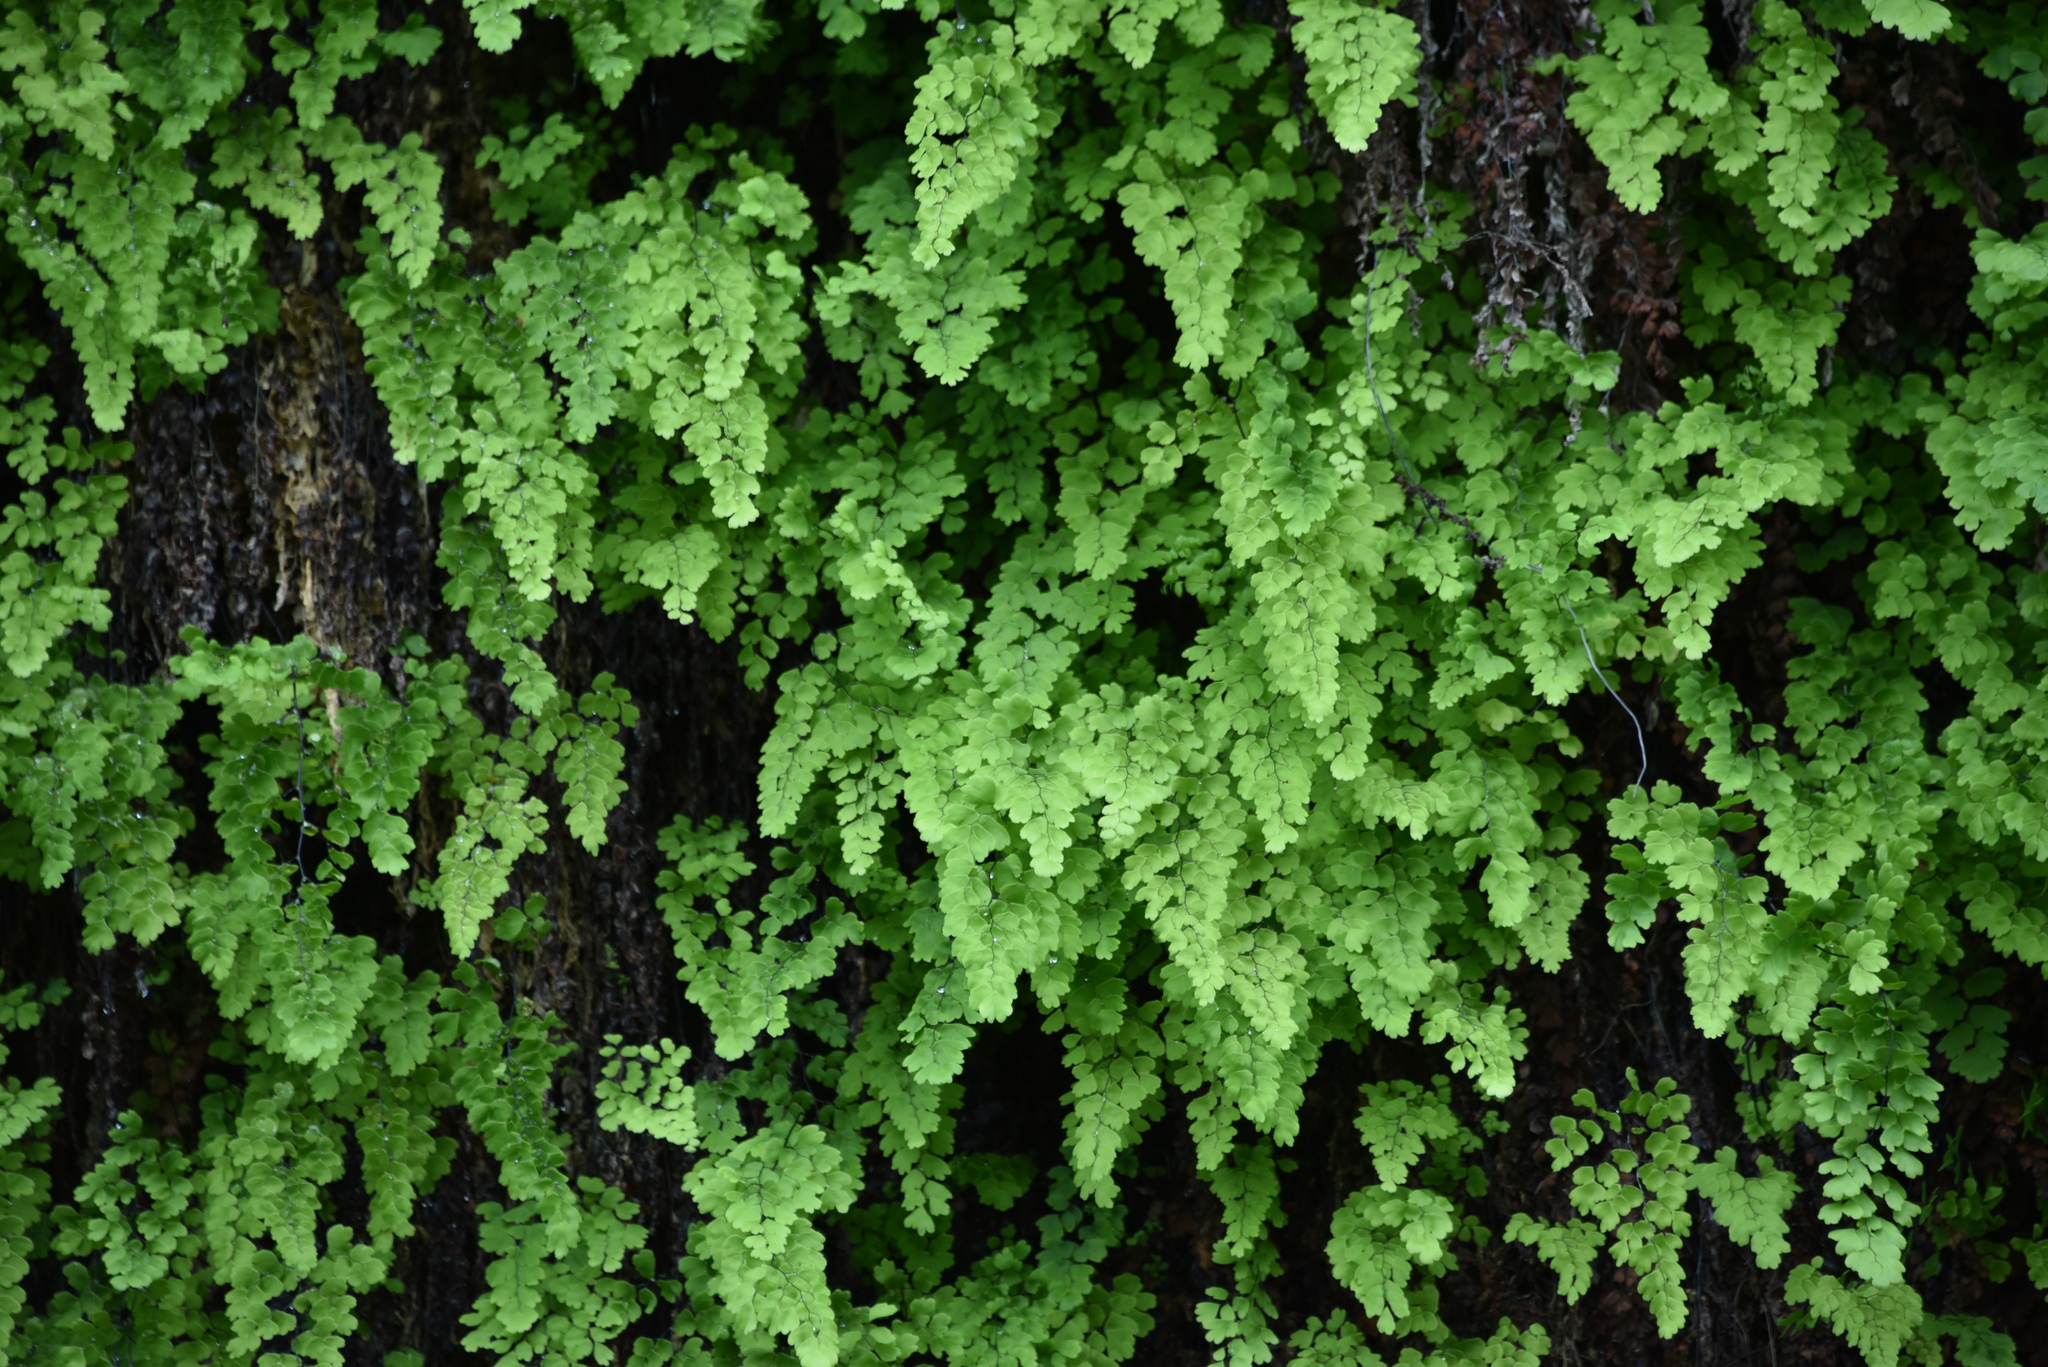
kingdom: Plantae
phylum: Tracheophyta
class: Polypodiopsida
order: Polypodiales
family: Pteridaceae
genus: Adiantum
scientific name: Adiantum capillus-veneris
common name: Maidenhair fern
